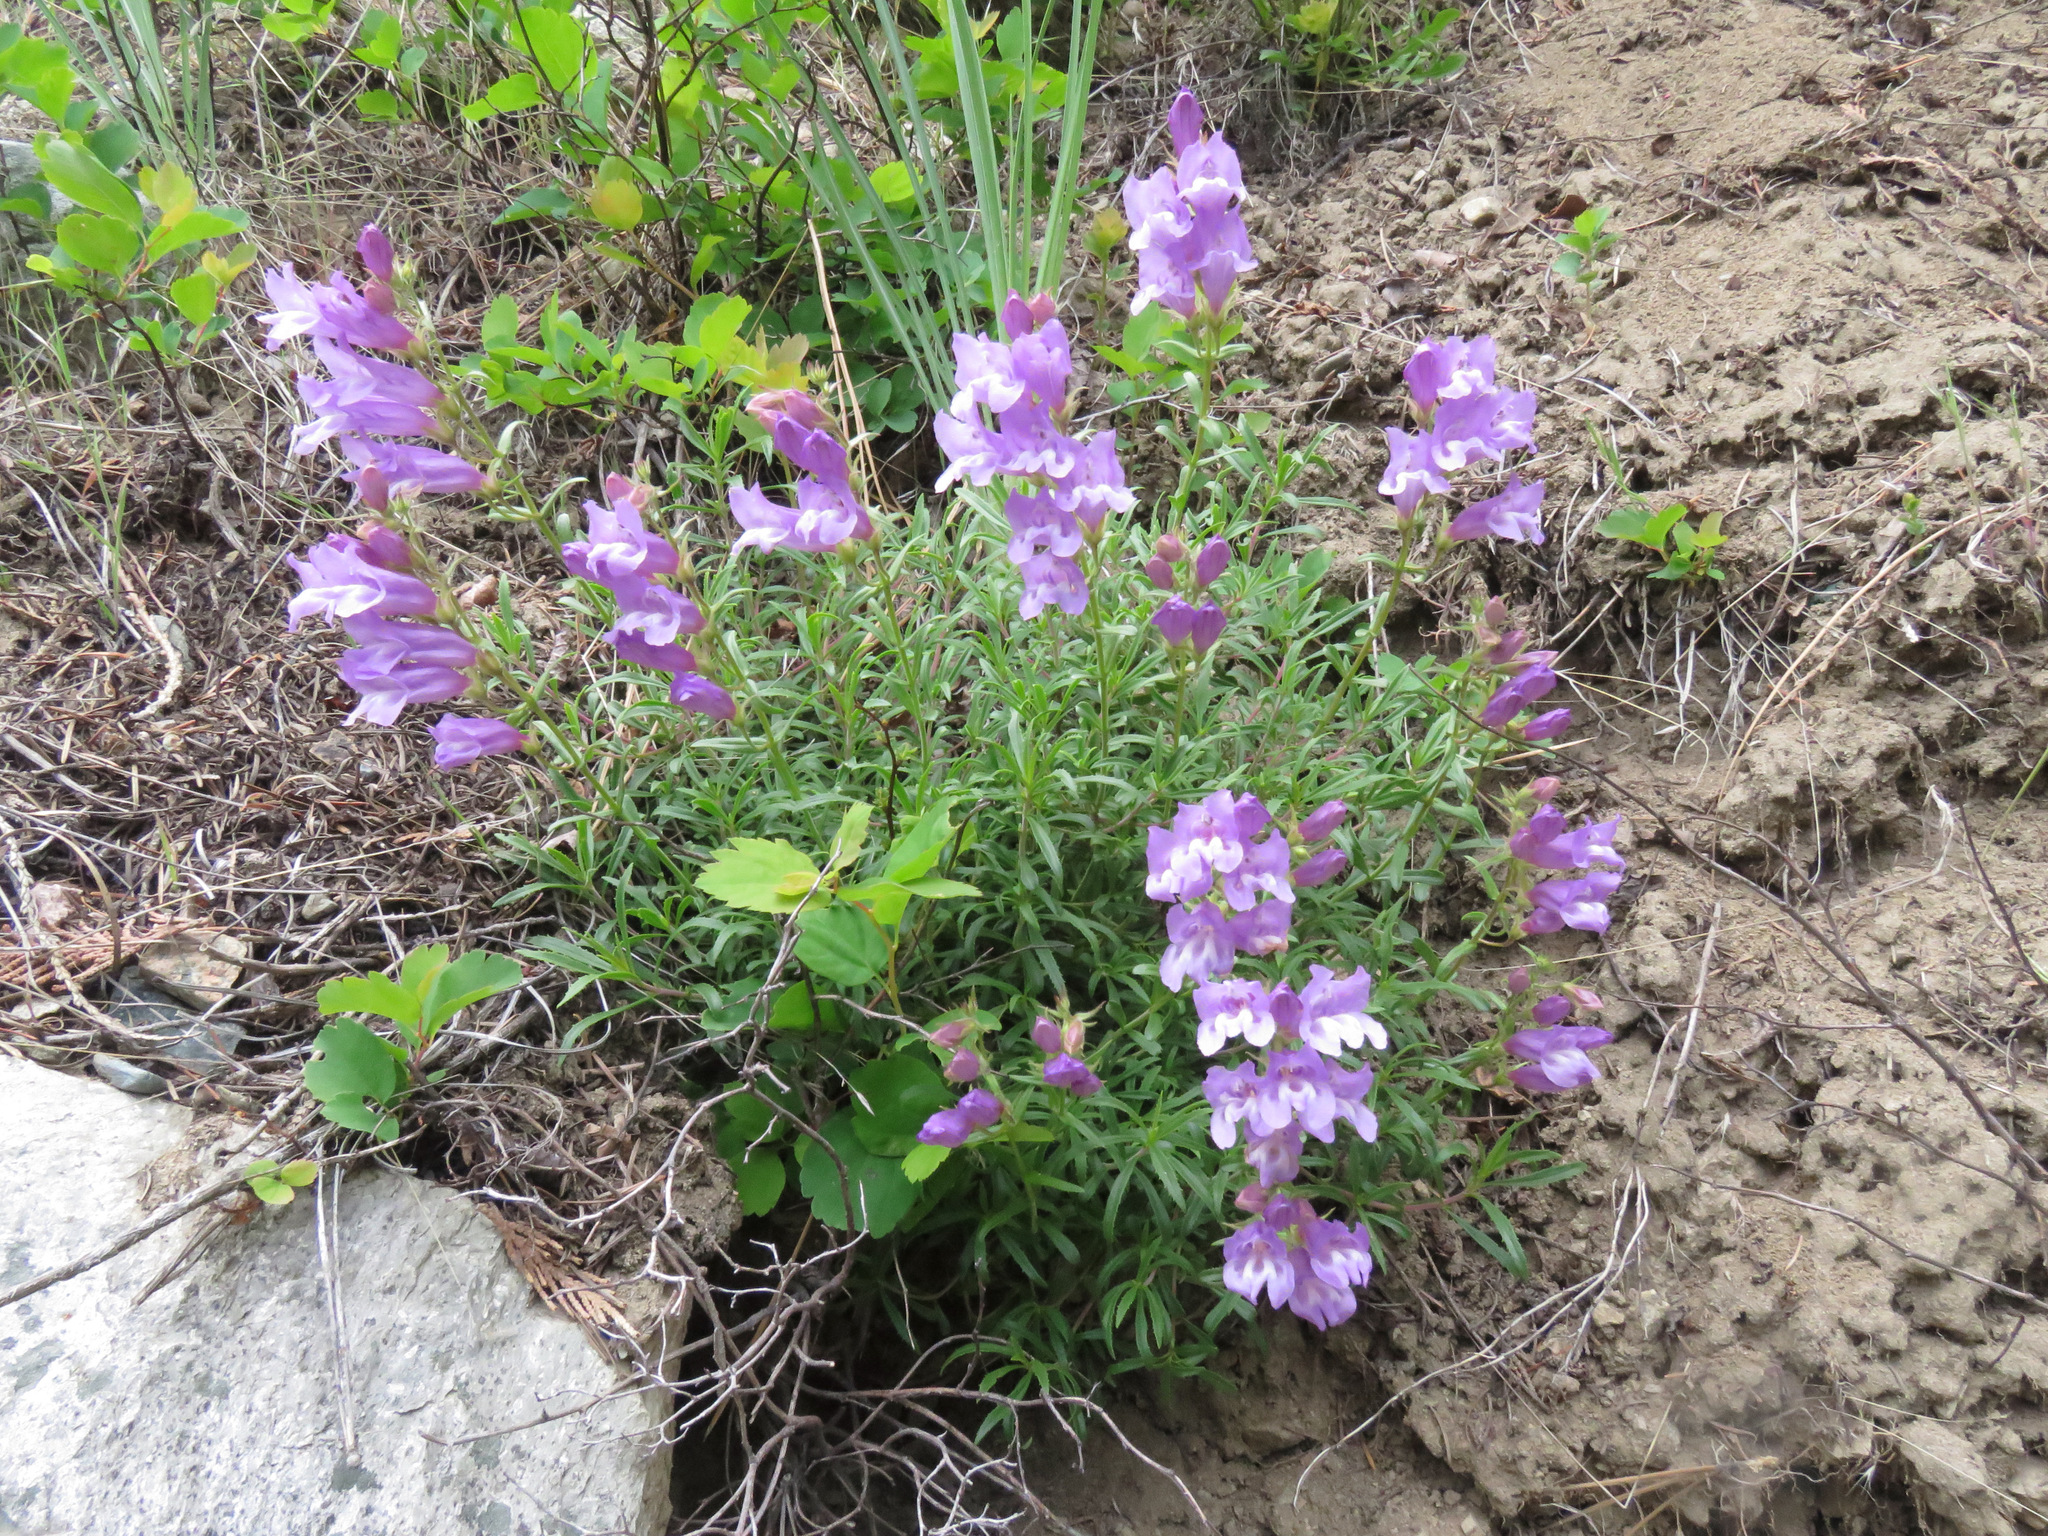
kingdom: Plantae
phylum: Tracheophyta
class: Magnoliopsida
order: Lamiales
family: Plantaginaceae
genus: Penstemon
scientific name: Penstemon fruticosus
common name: Bush penstemon
